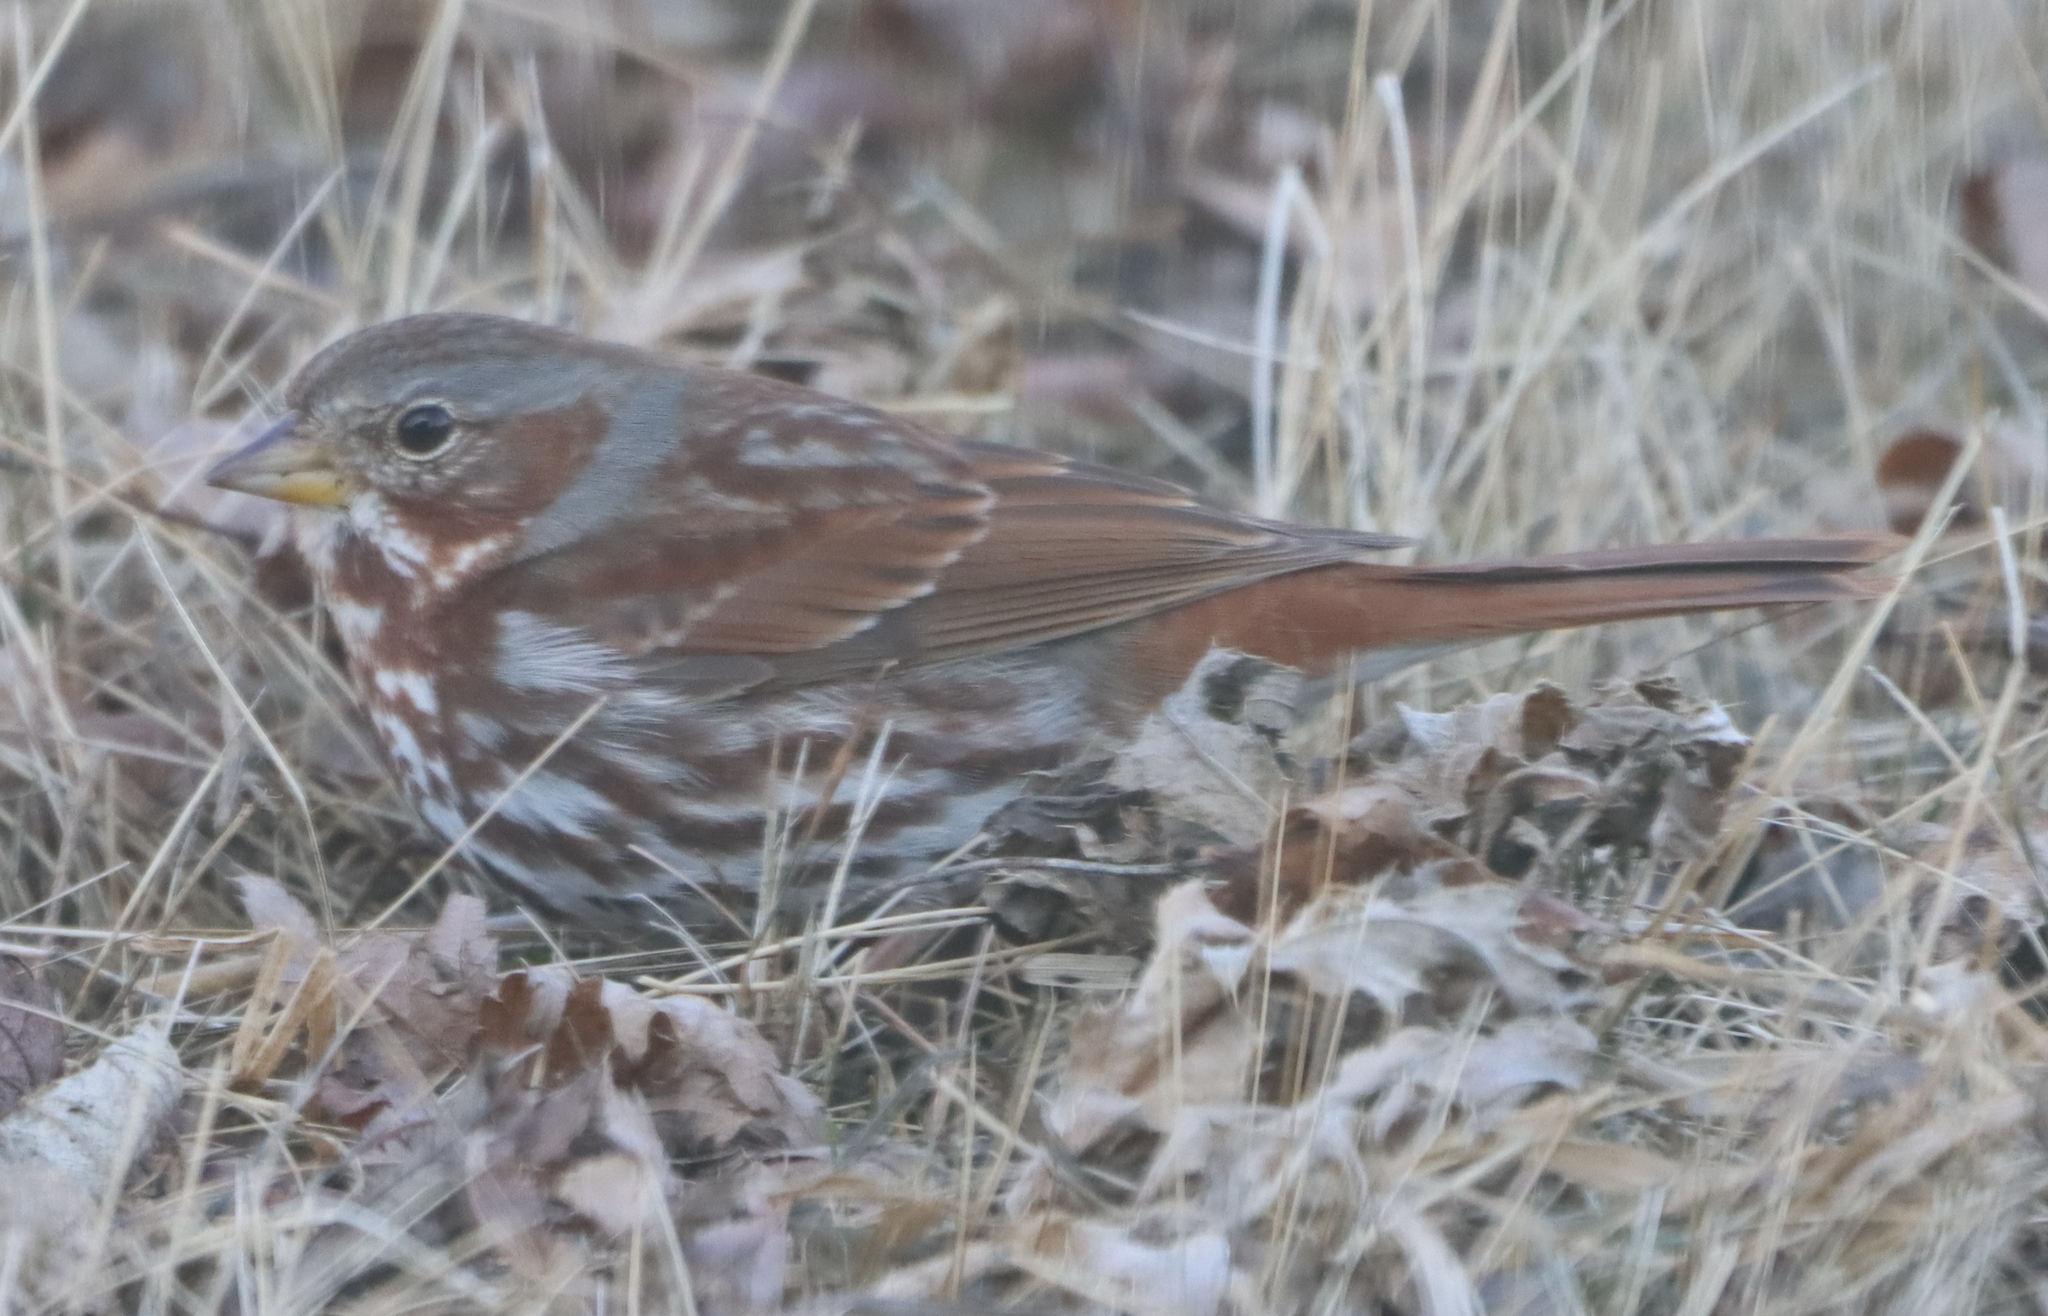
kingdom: Animalia
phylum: Chordata
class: Aves
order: Passeriformes
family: Passerellidae
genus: Passerella
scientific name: Passerella iliaca
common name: Fox sparrow
